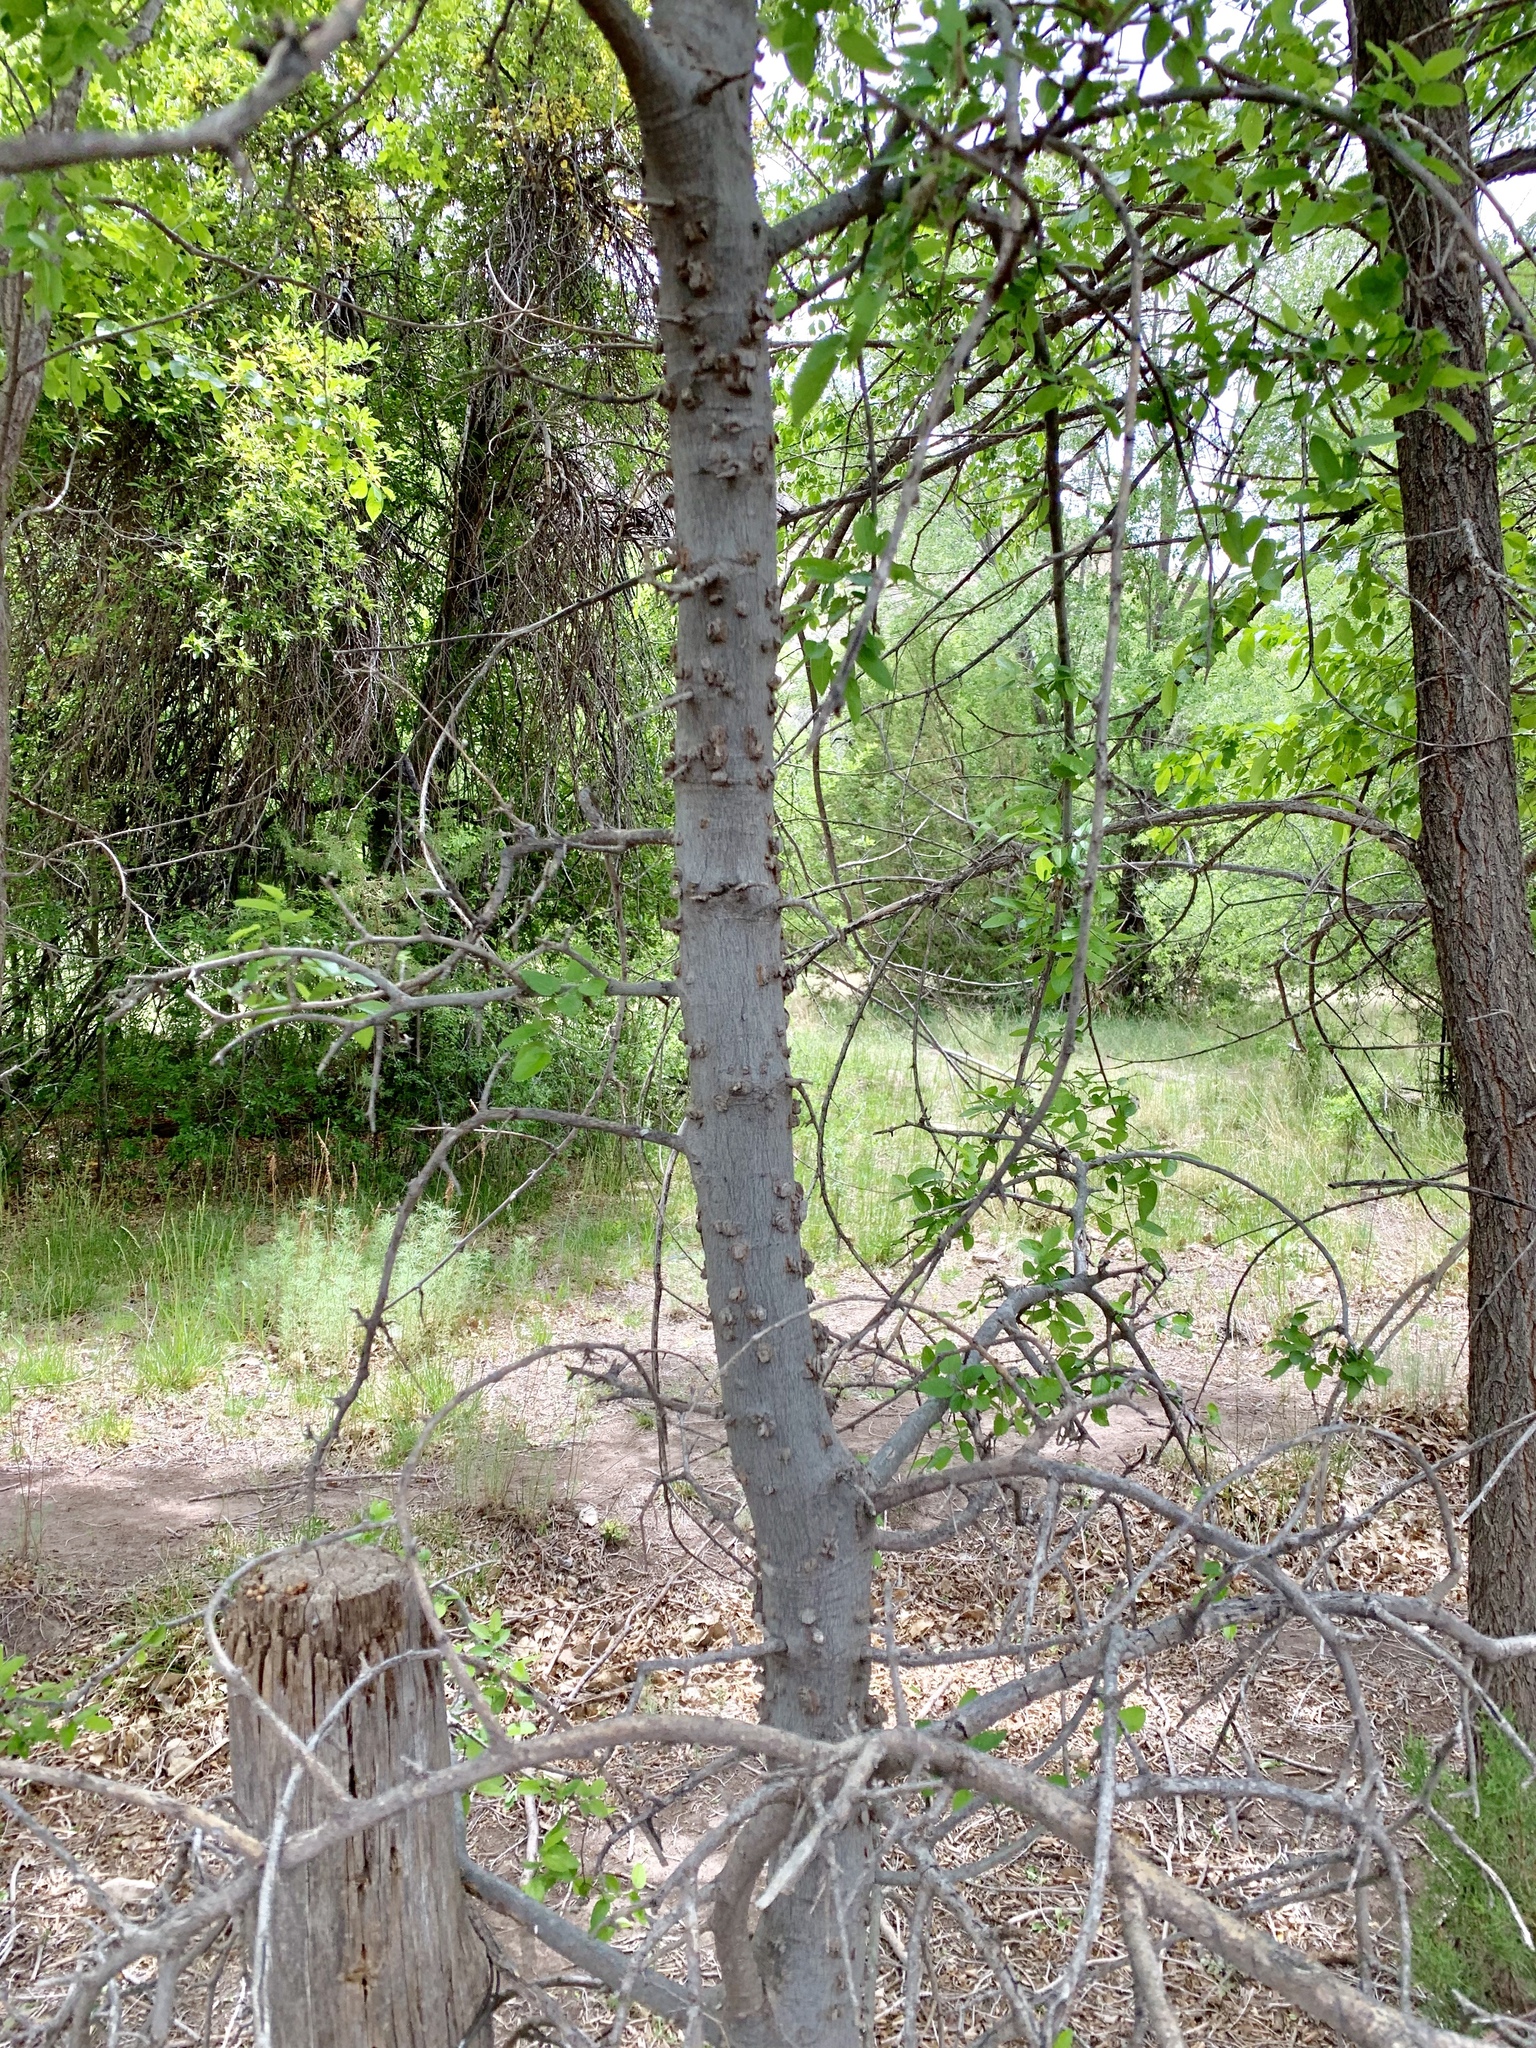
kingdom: Plantae
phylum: Tracheophyta
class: Magnoliopsida
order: Rosales
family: Cannabaceae
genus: Celtis
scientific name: Celtis reticulata
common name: Netleaf hackberry
